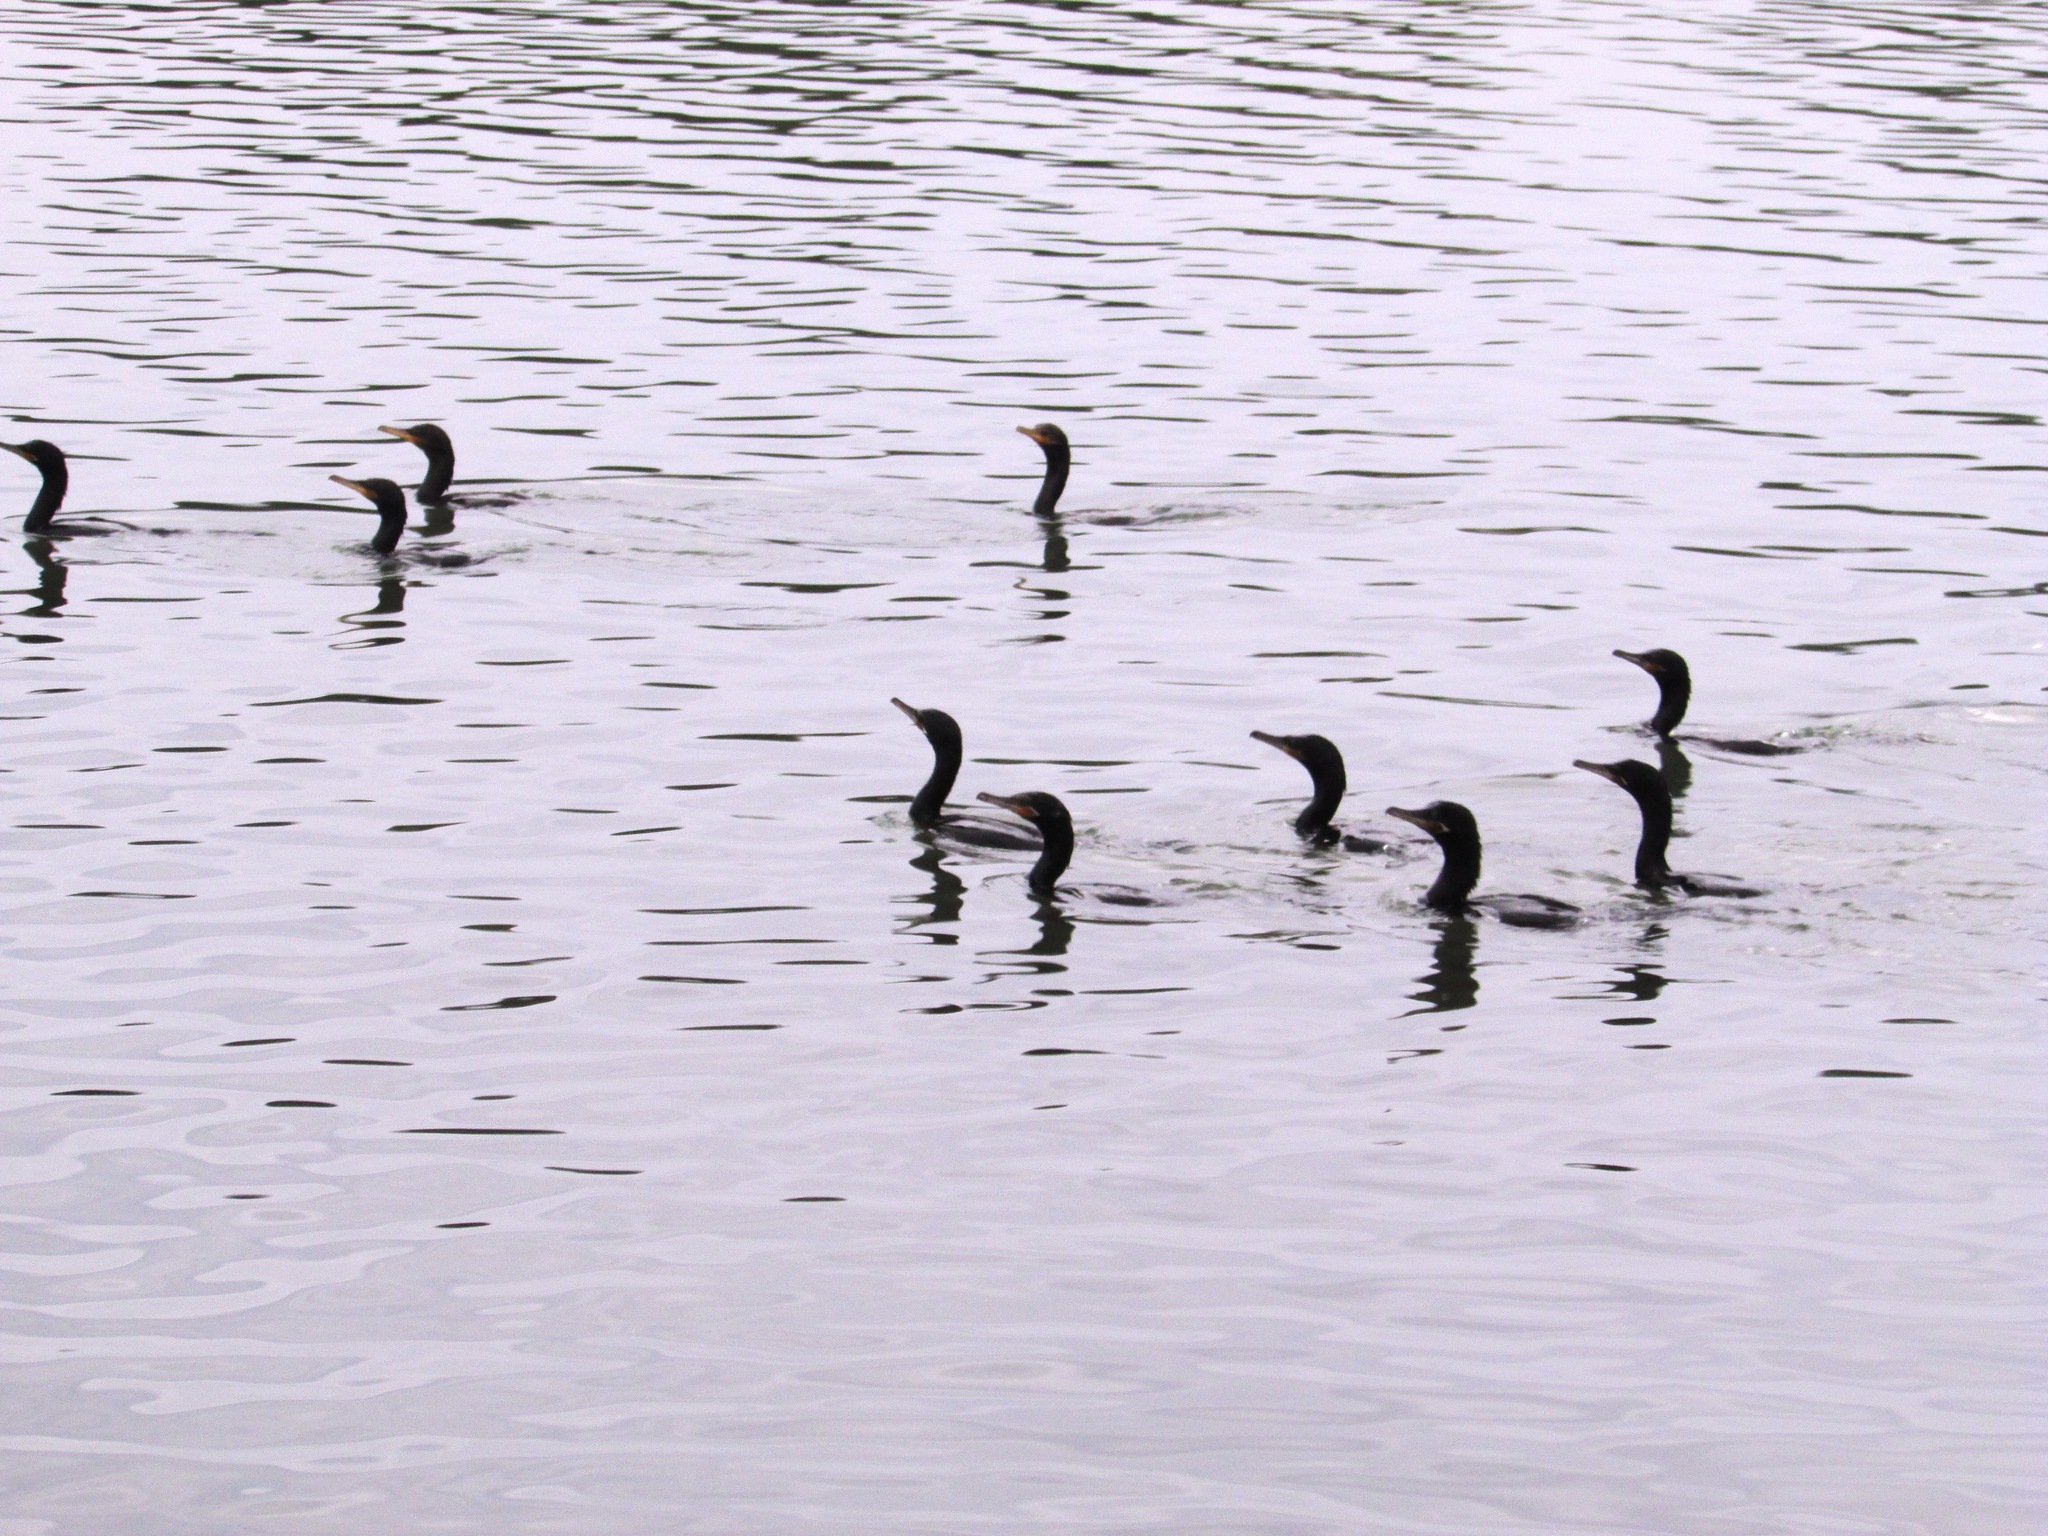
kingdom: Animalia
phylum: Chordata
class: Aves
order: Suliformes
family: Phalacrocoracidae
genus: Phalacrocorax
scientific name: Phalacrocorax brasilianus
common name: Neotropic cormorant
